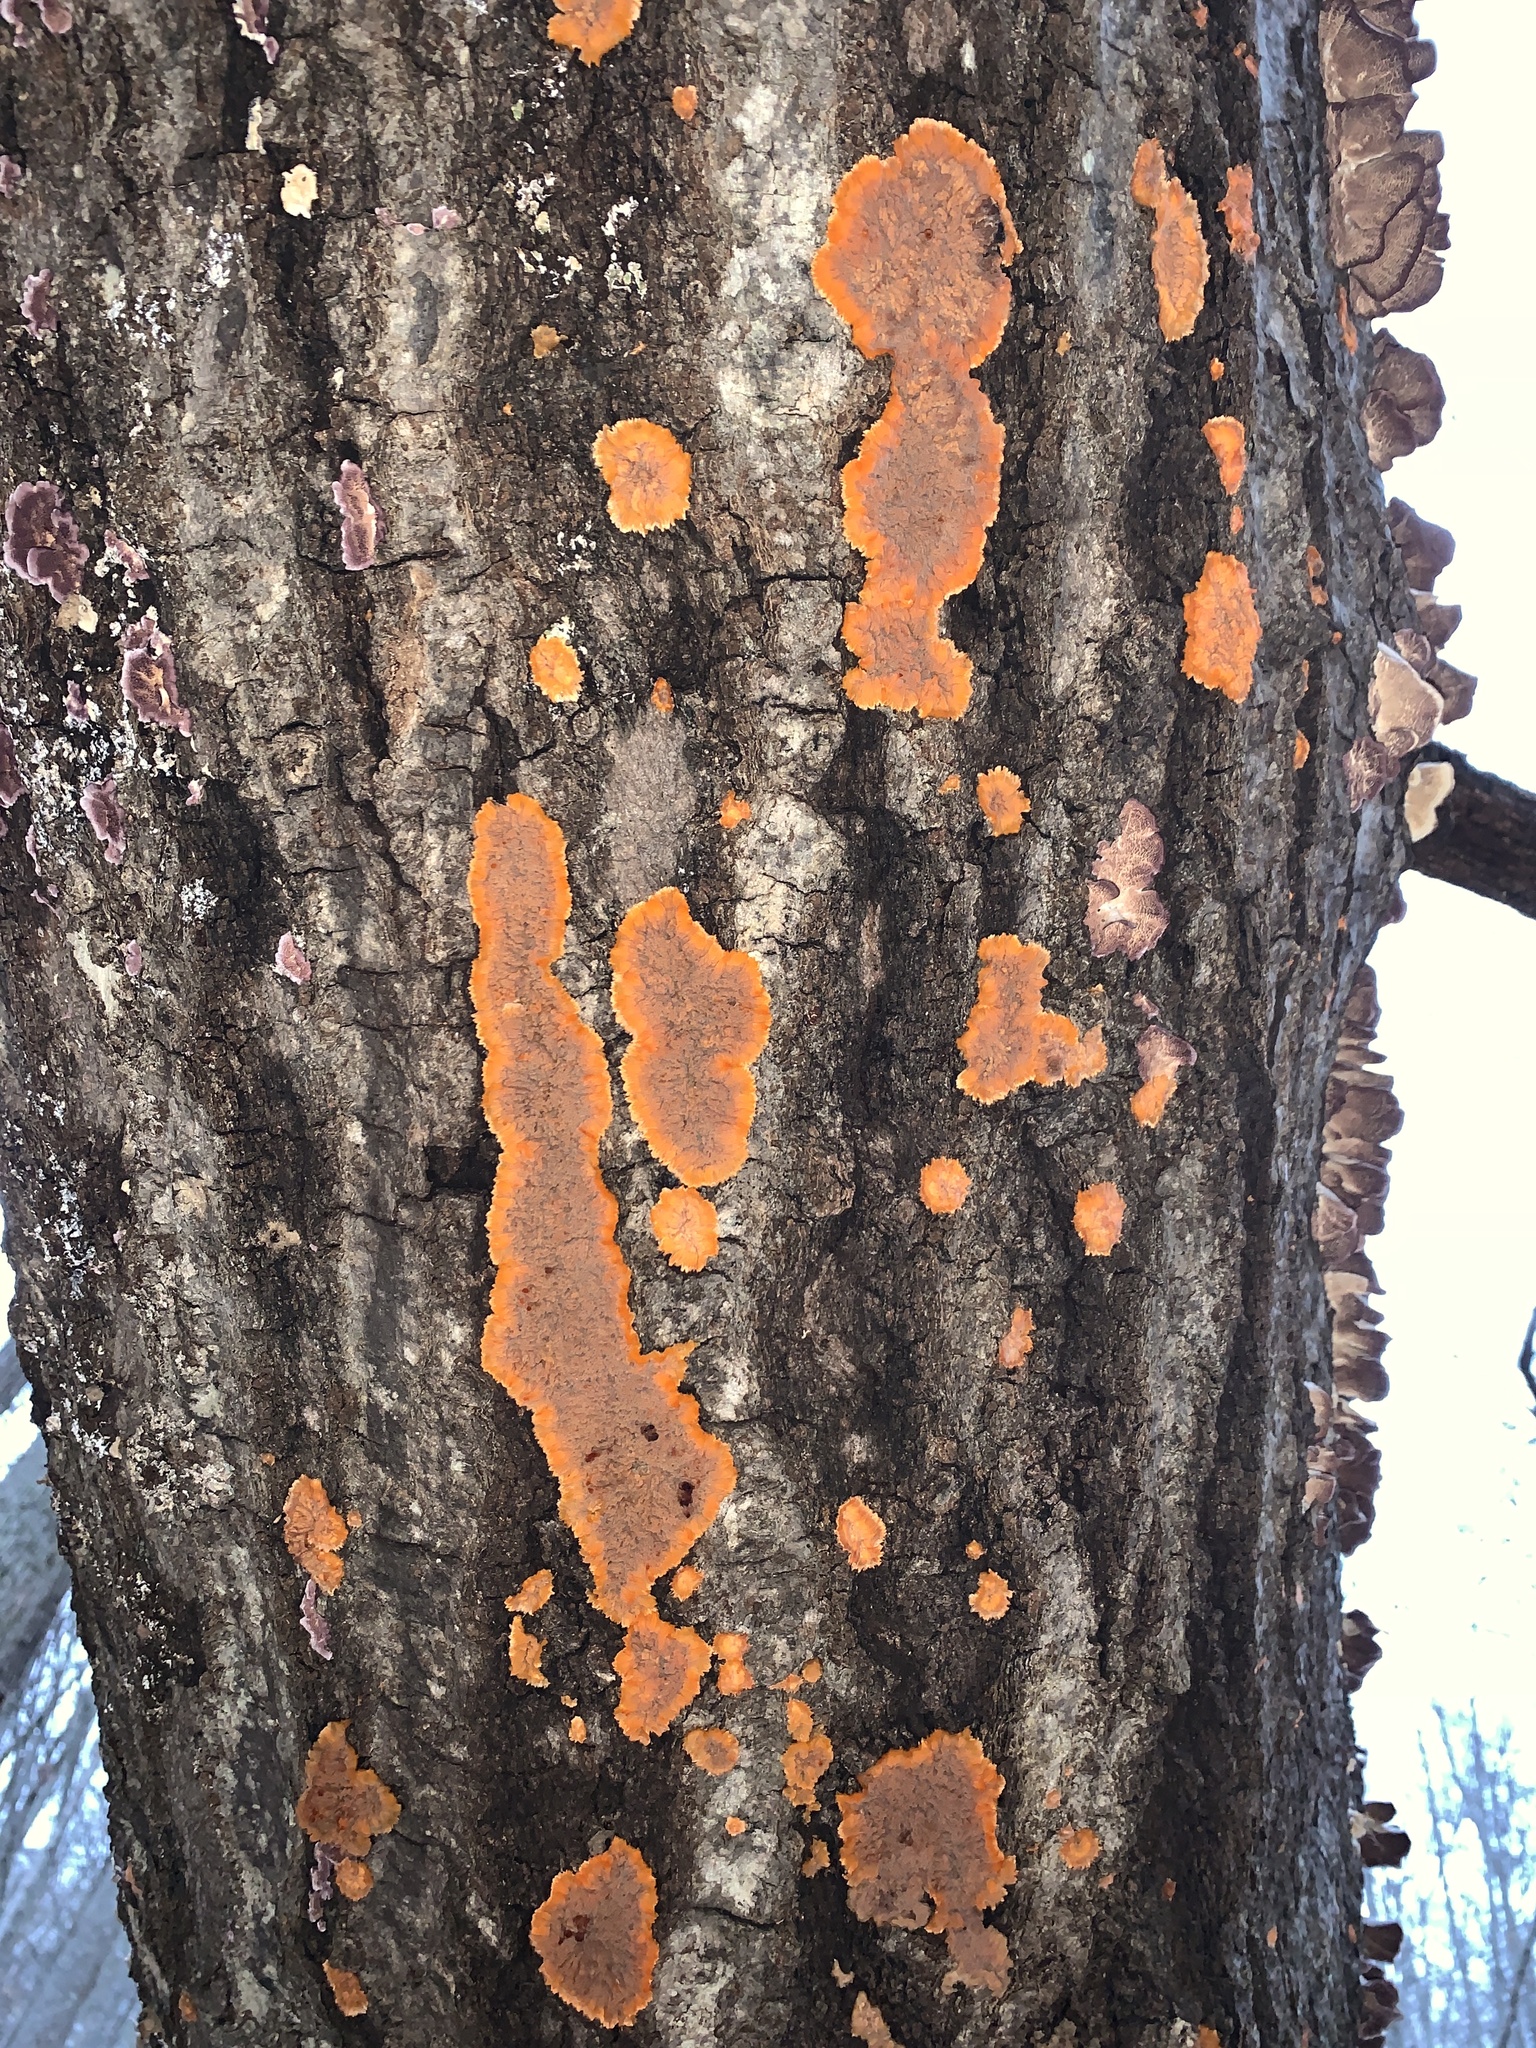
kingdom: Fungi
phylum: Basidiomycota
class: Agaricomycetes
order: Polyporales
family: Meruliaceae
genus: Phlebia
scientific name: Phlebia radiata
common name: Wrinkled crust
